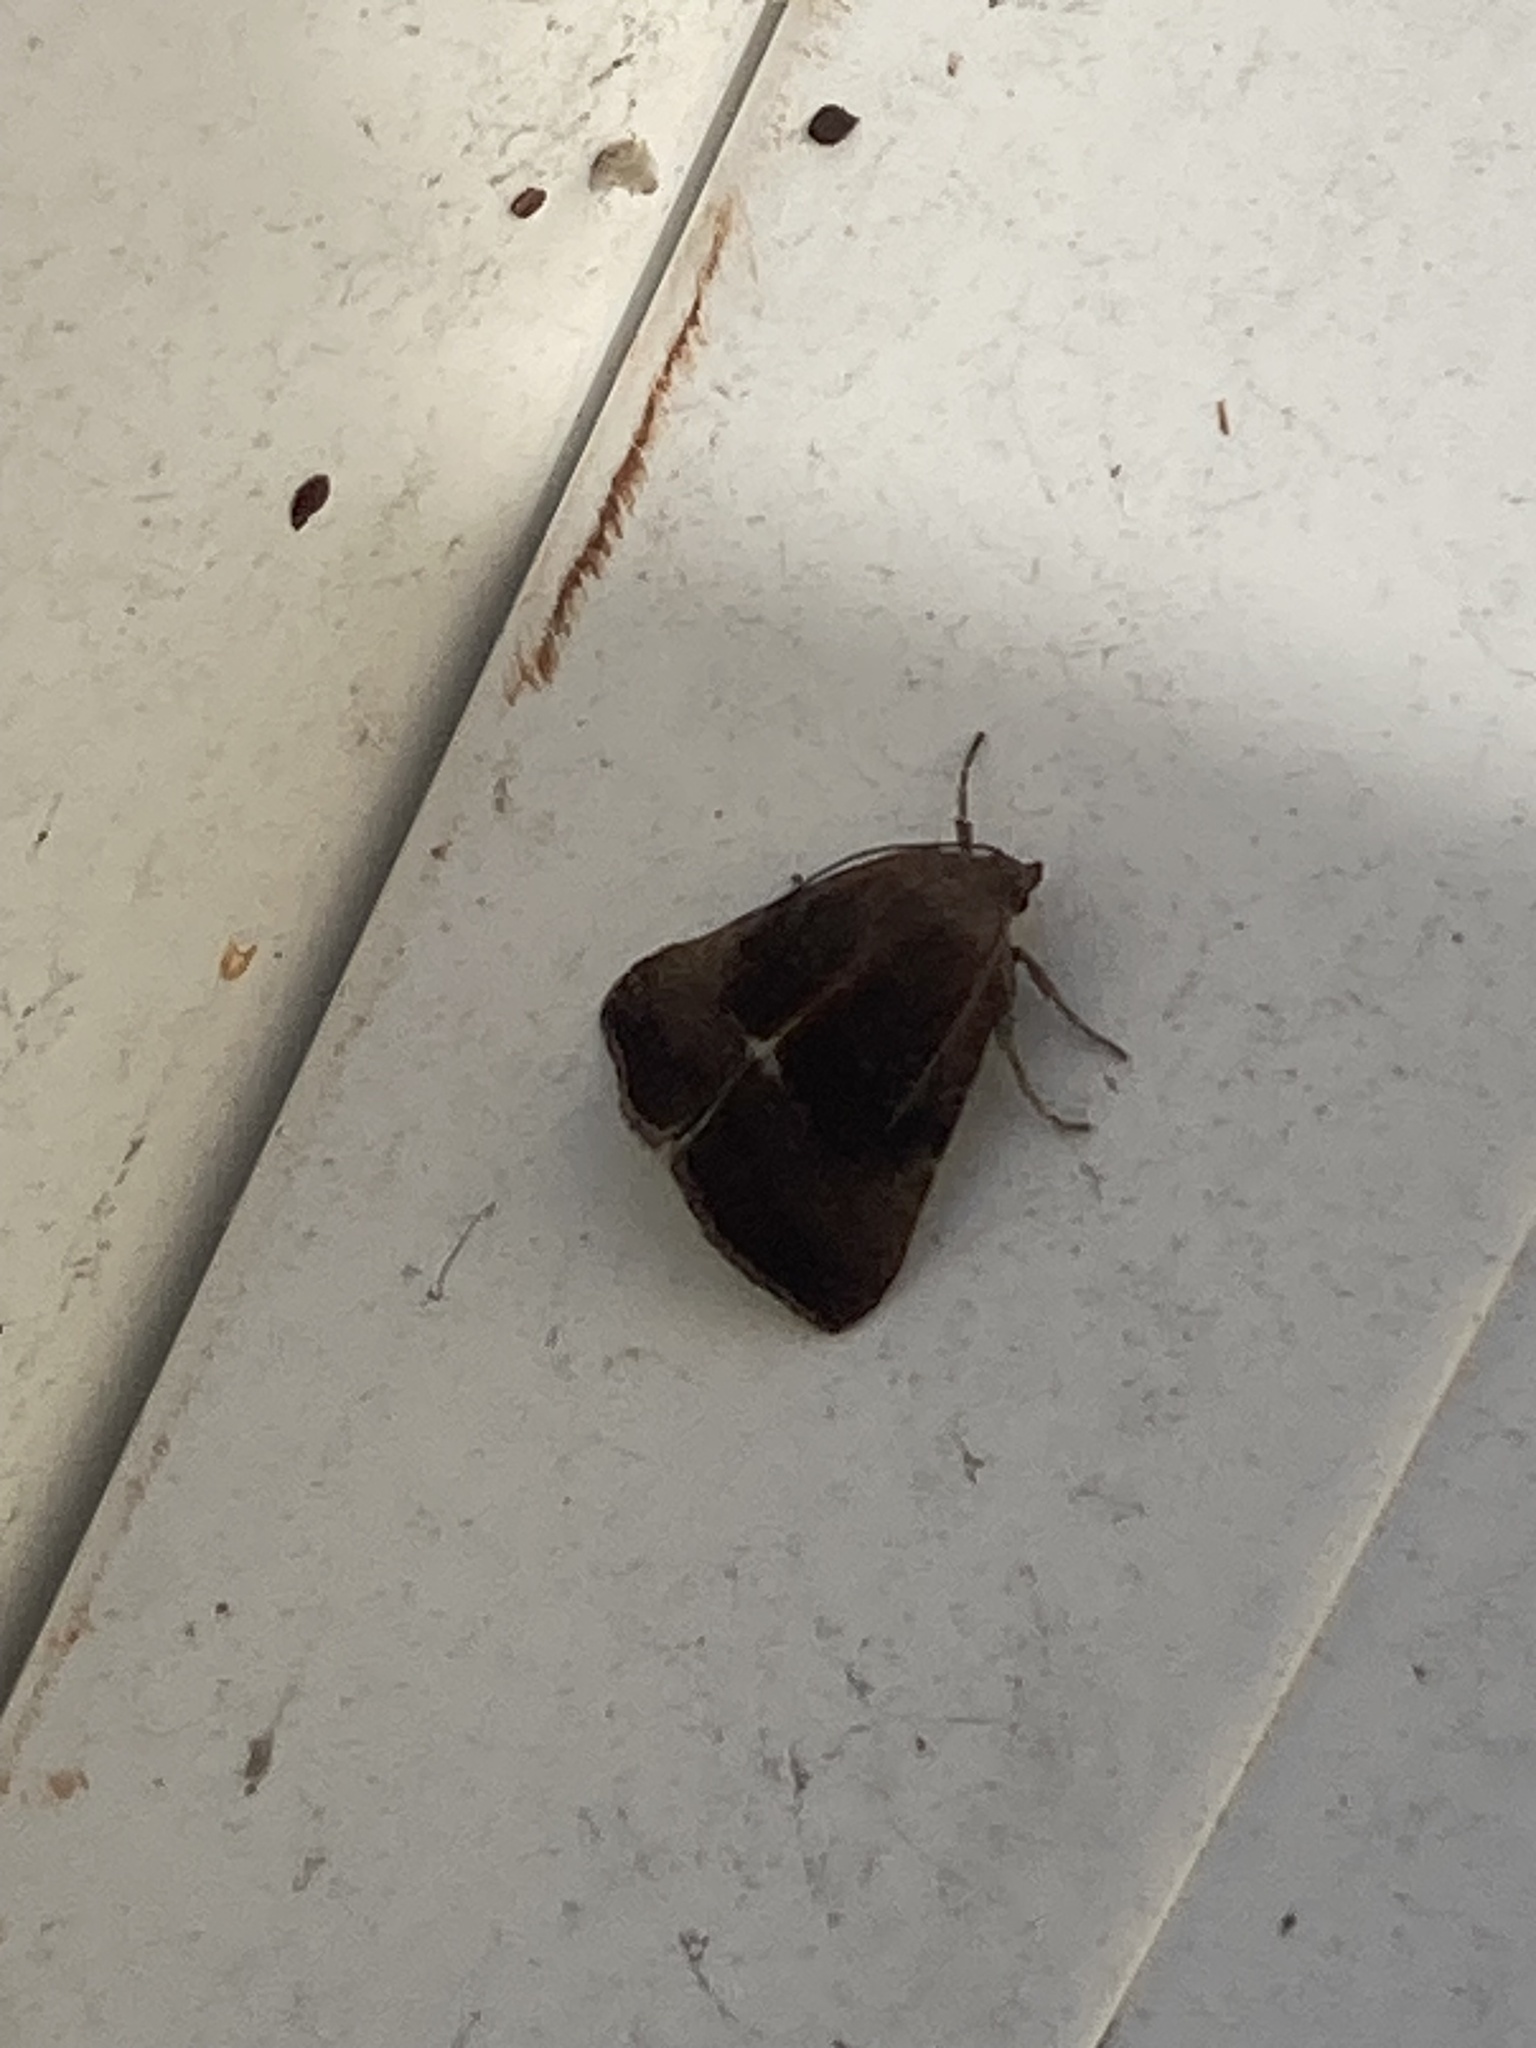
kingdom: Animalia
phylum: Arthropoda
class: Insecta
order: Lepidoptera
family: Noctuidae
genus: Galgula
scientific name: Galgula partita
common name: Wedgeling
